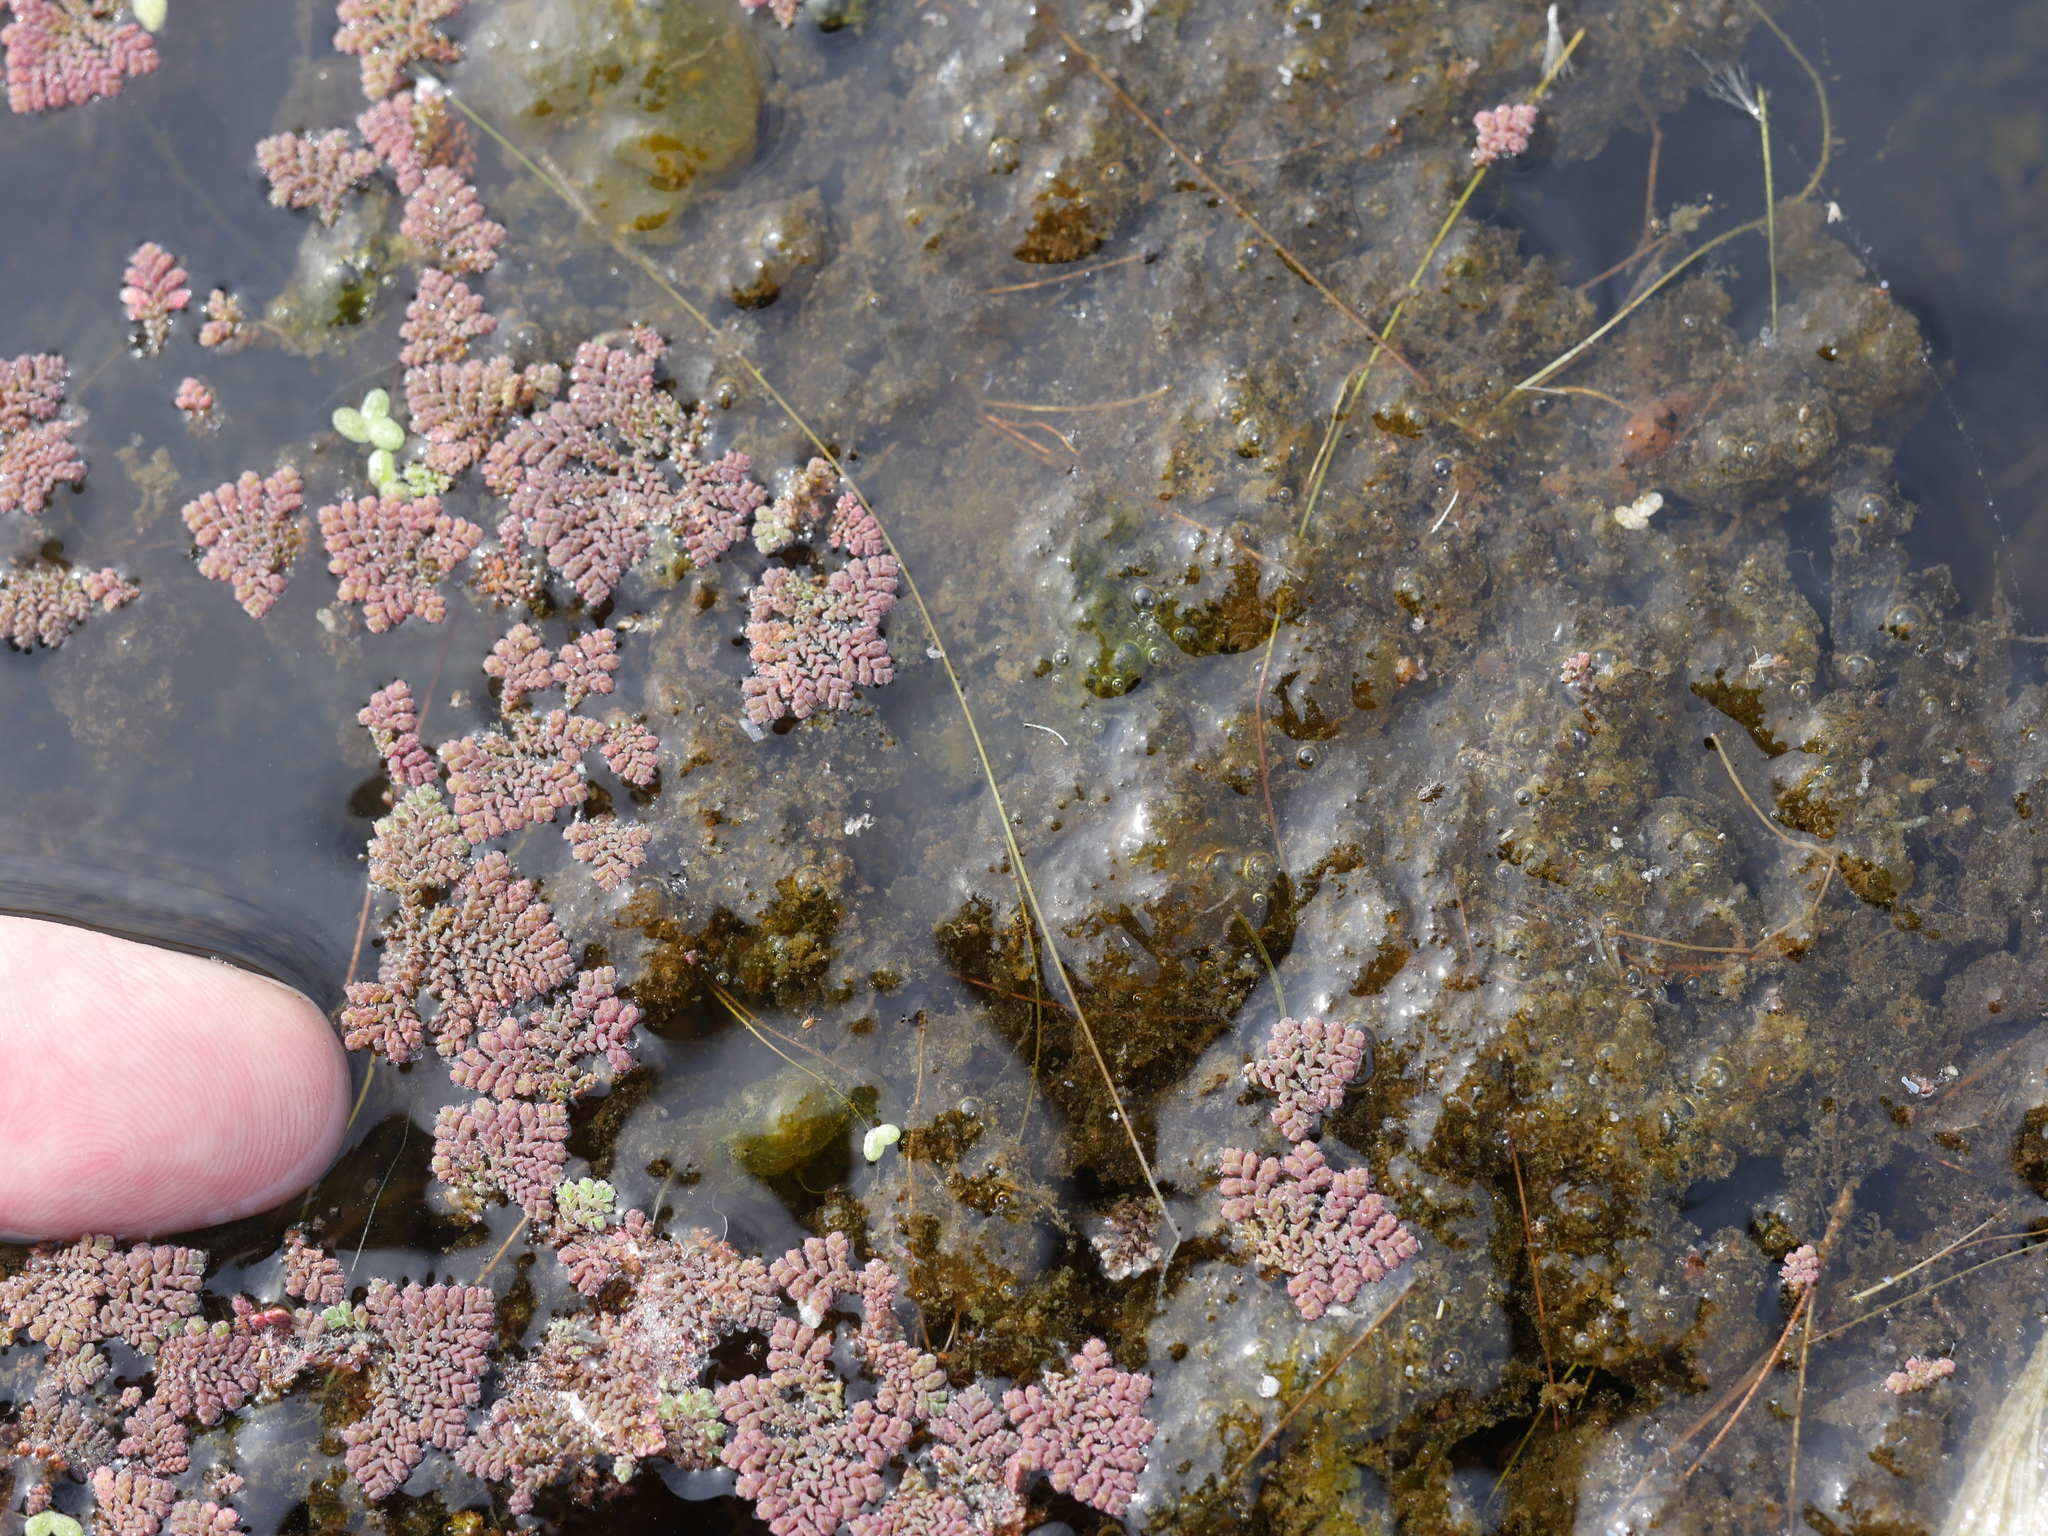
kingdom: Plantae
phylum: Tracheophyta
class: Polypodiopsida
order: Salviniales
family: Salviniaceae
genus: Azolla
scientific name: Azolla pinnata
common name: Ferny azolla
